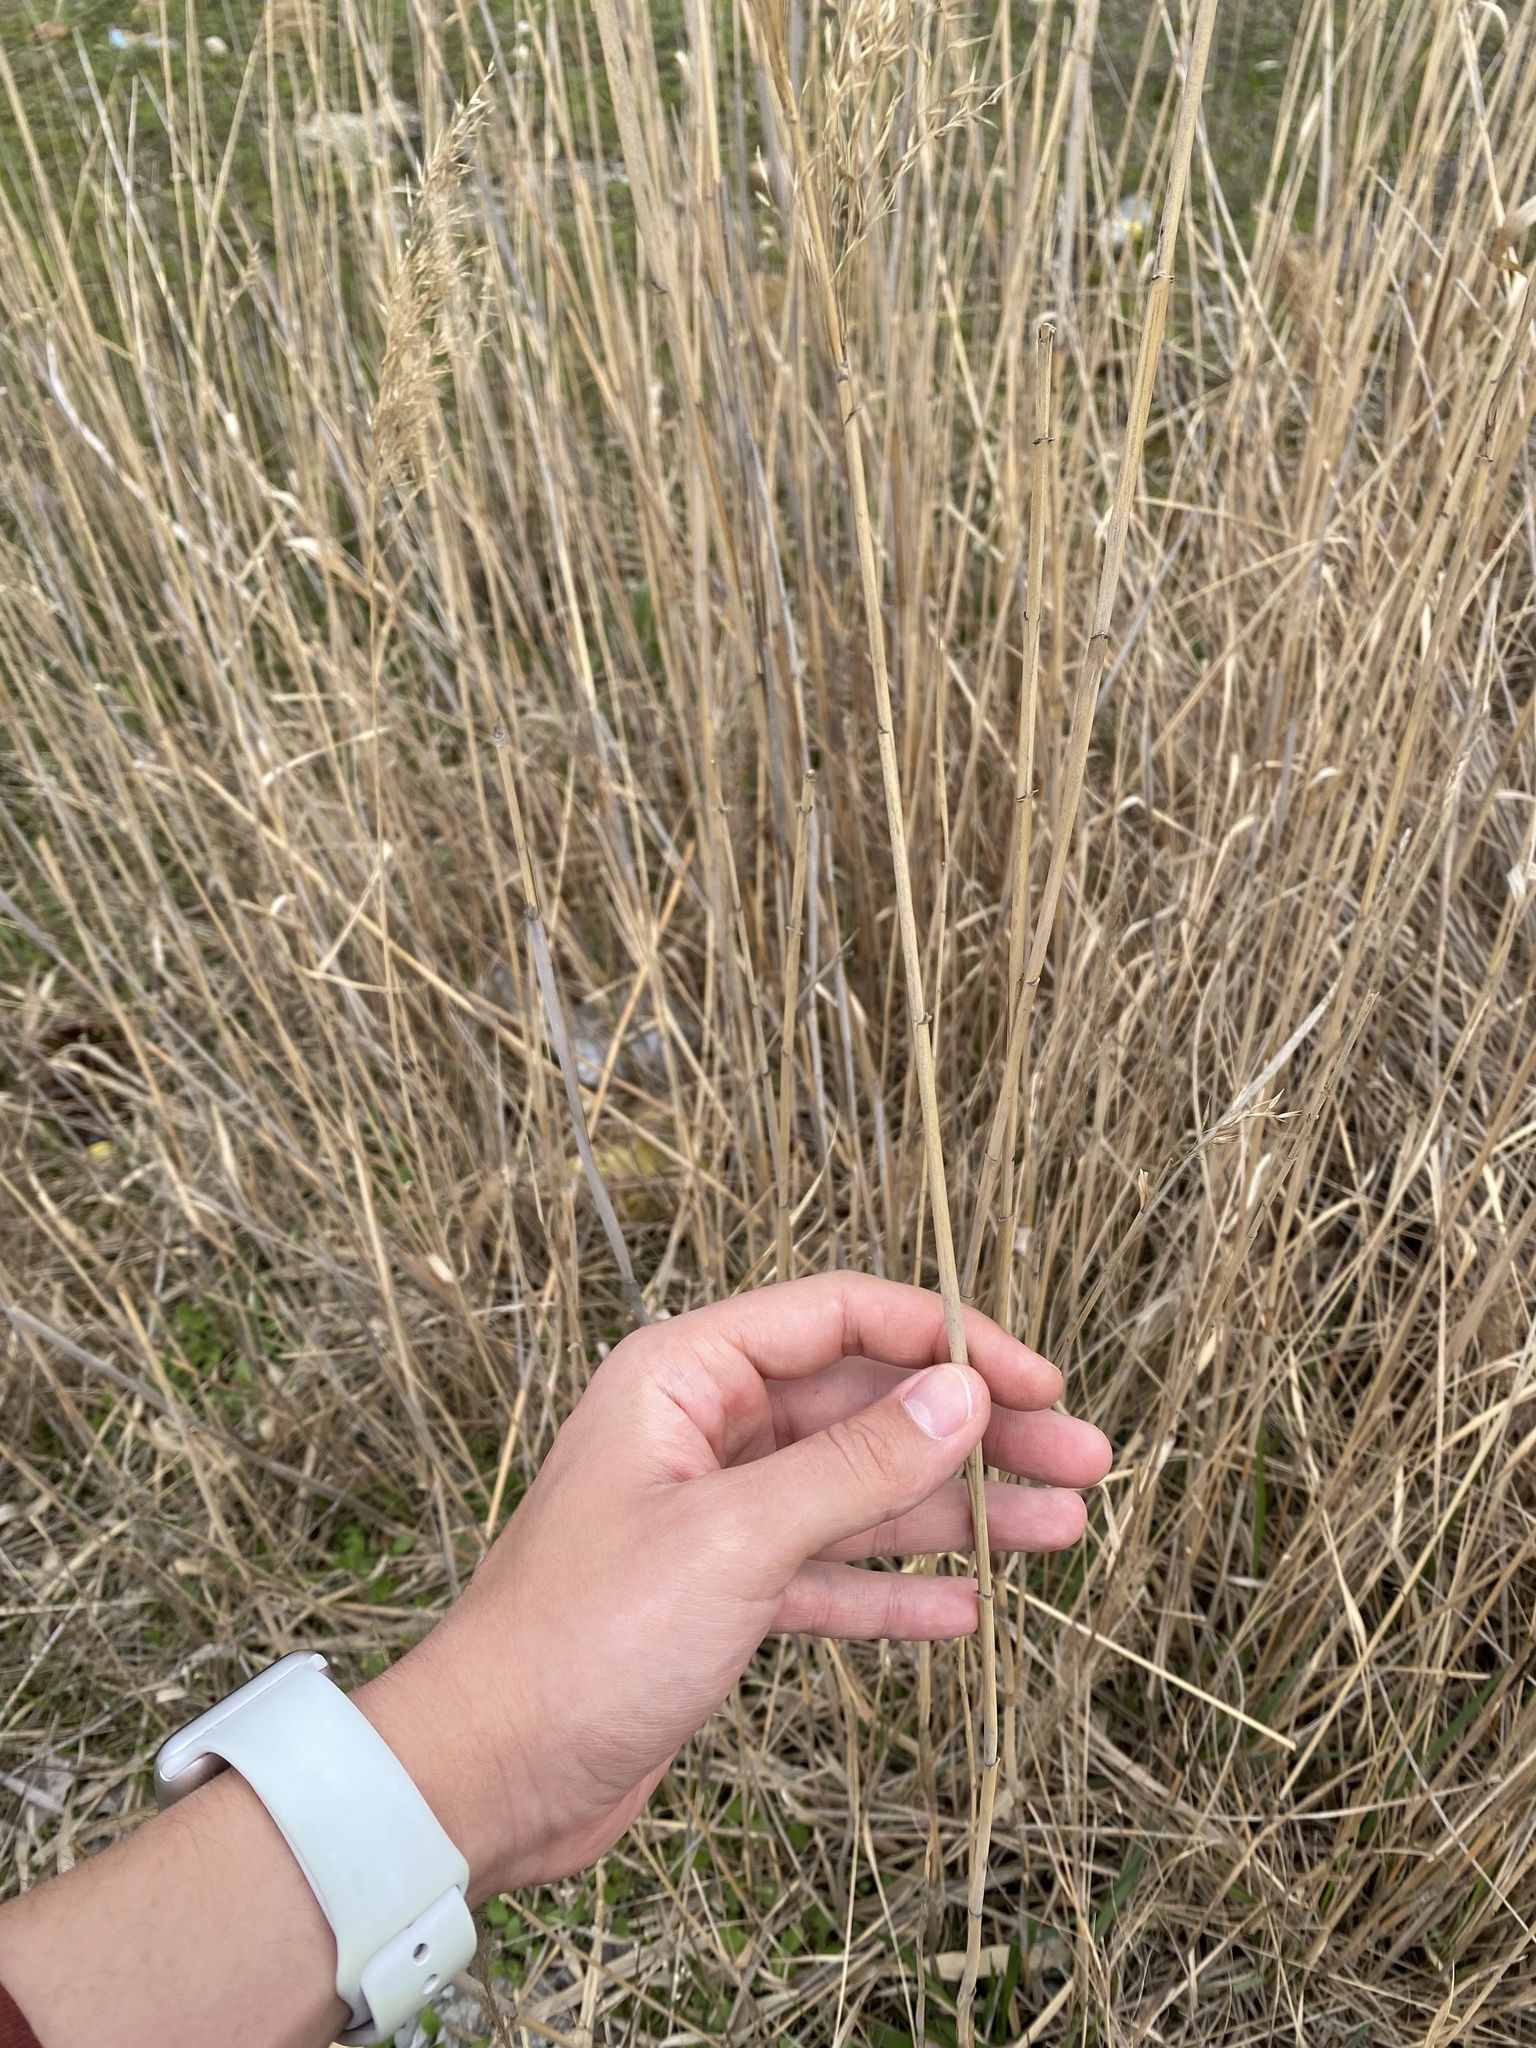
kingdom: Plantae
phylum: Tracheophyta
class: Liliopsida
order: Poales
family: Poaceae
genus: Phragmites
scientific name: Phragmites australis
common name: Common reed
